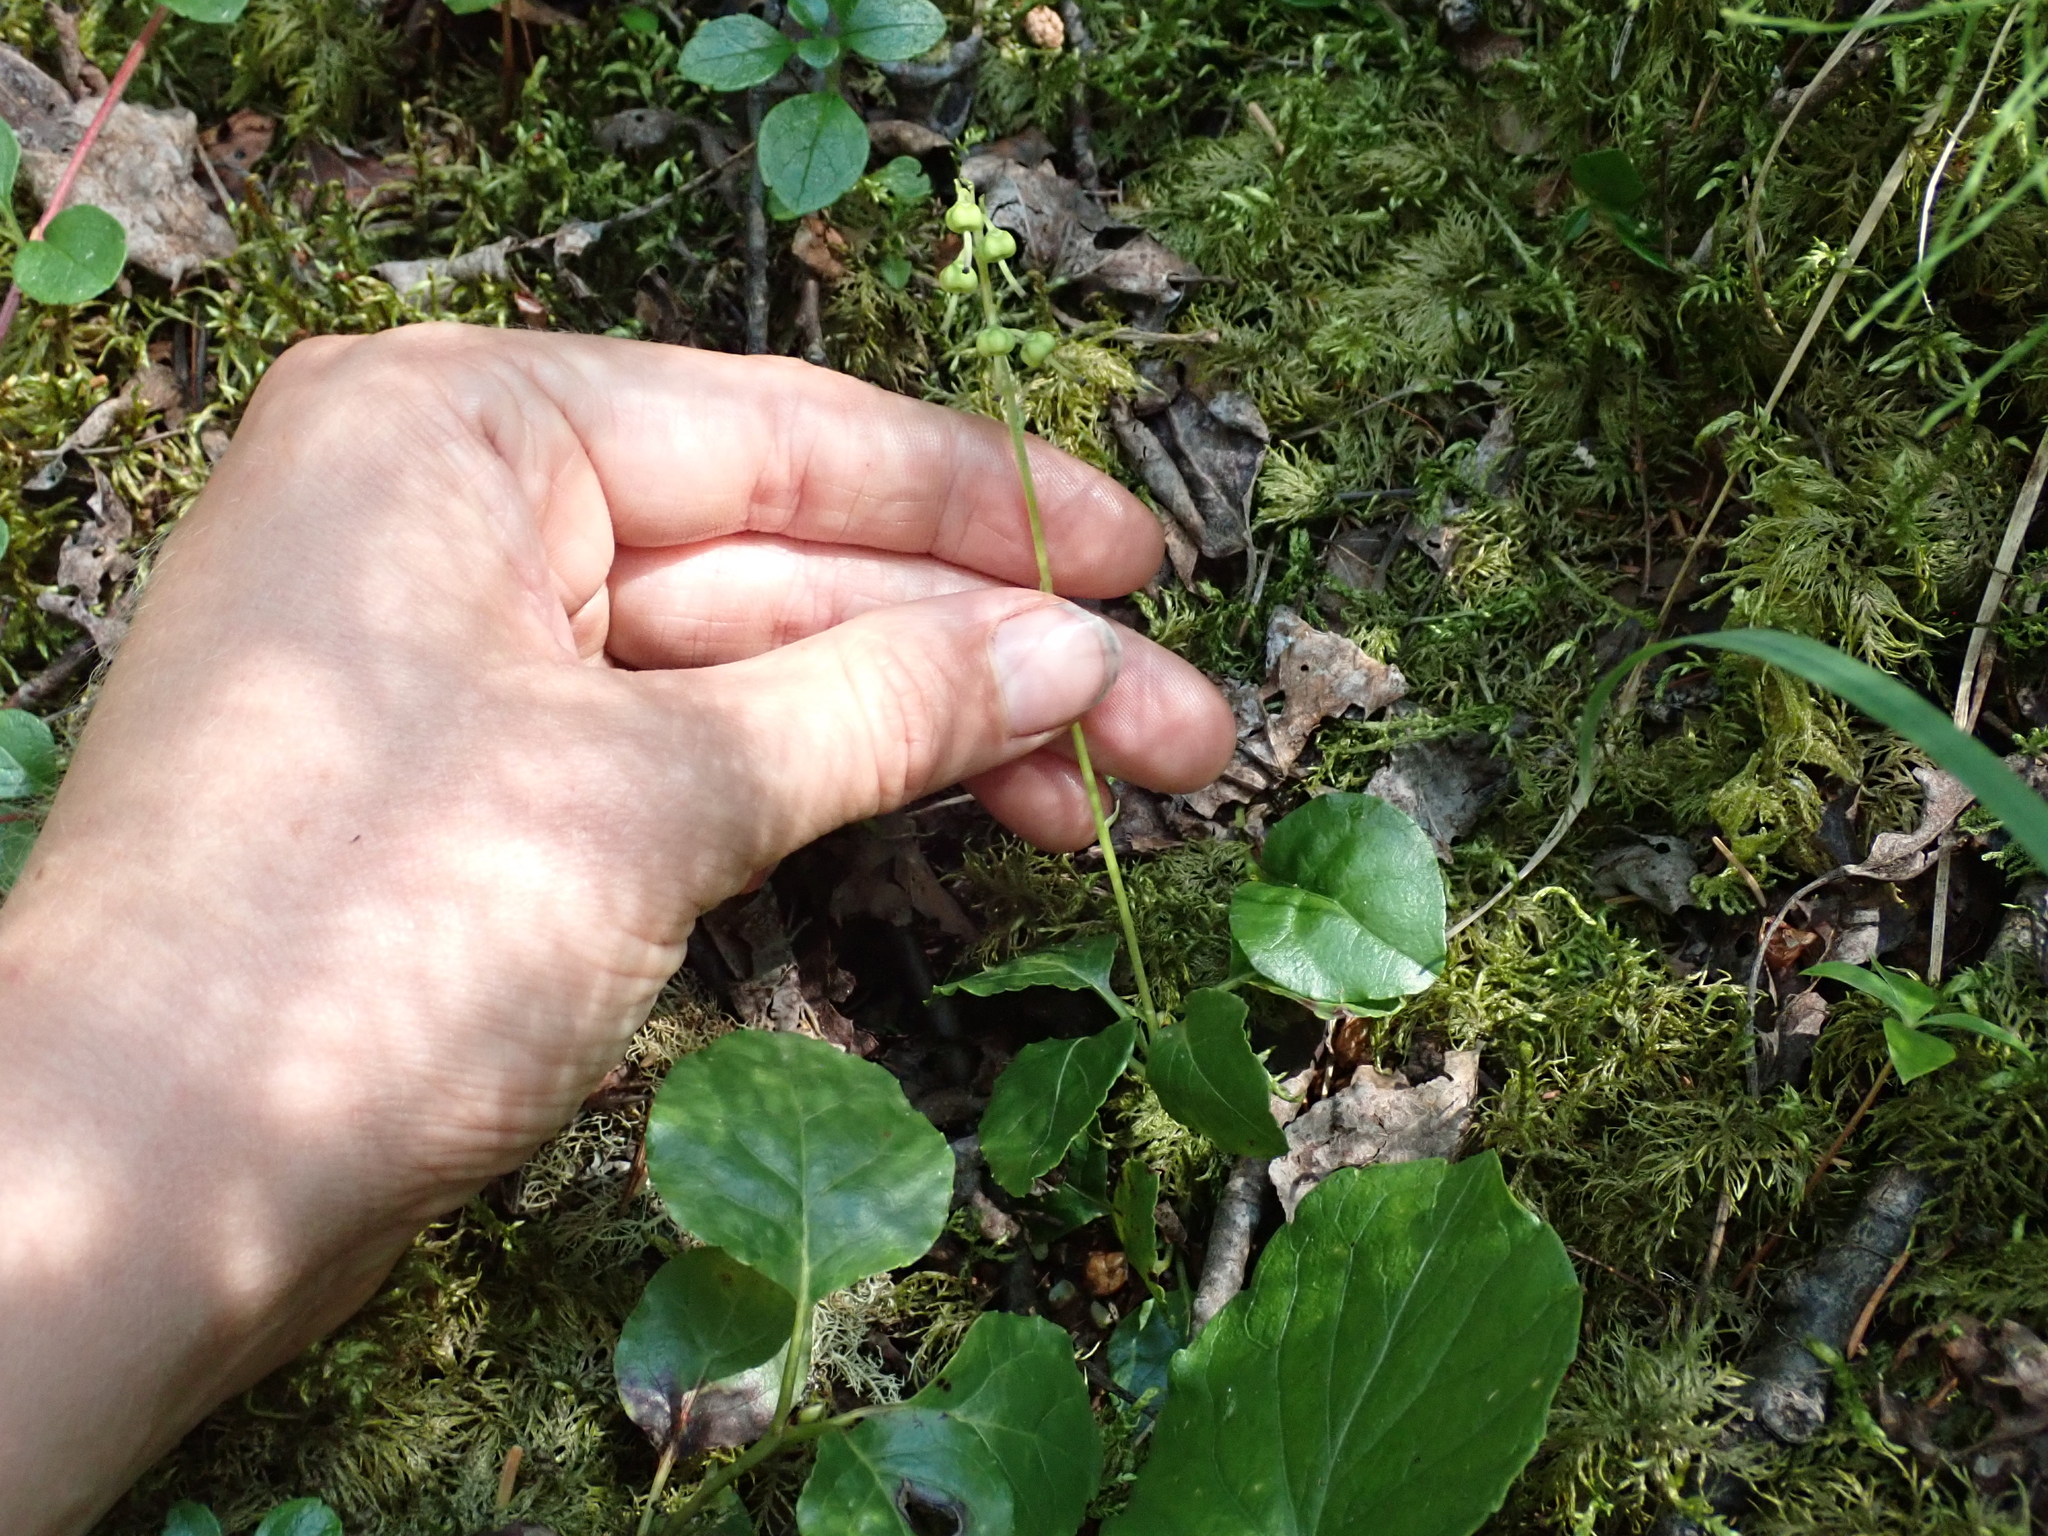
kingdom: Plantae
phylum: Tracheophyta
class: Magnoliopsida
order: Ericales
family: Ericaceae
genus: Orthilia
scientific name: Orthilia secunda
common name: One-sided orthilia
